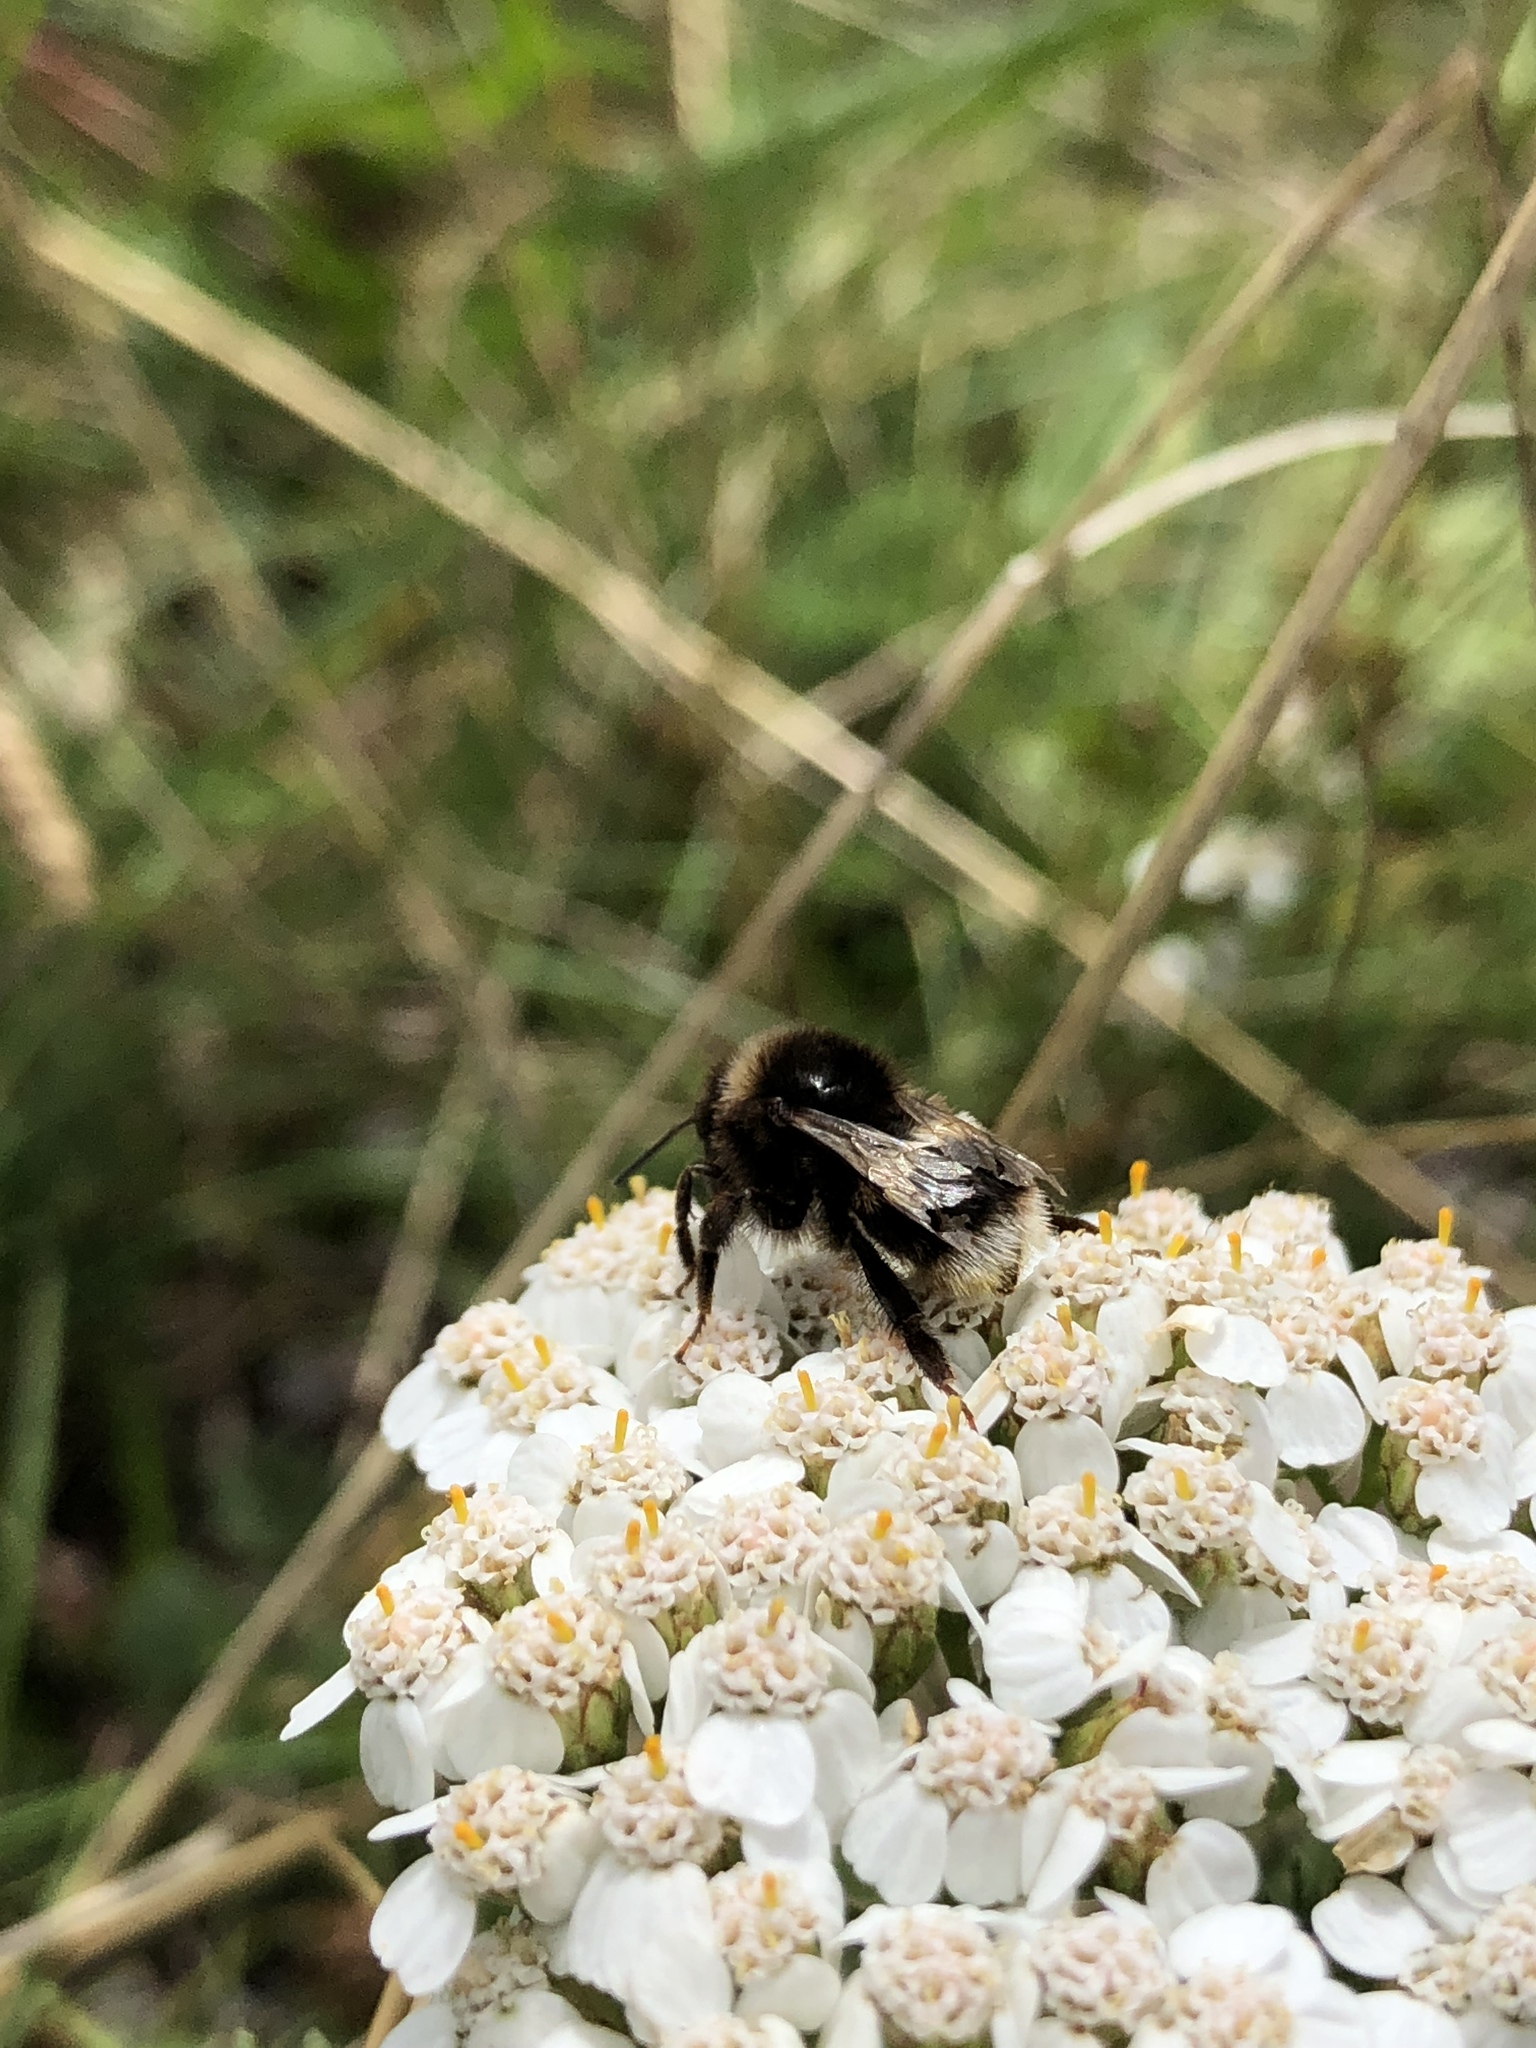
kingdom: Animalia
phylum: Arthropoda
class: Insecta
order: Hymenoptera
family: Apidae
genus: Bombus
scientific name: Bombus terrestris
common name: Buff-tailed bumblebee
